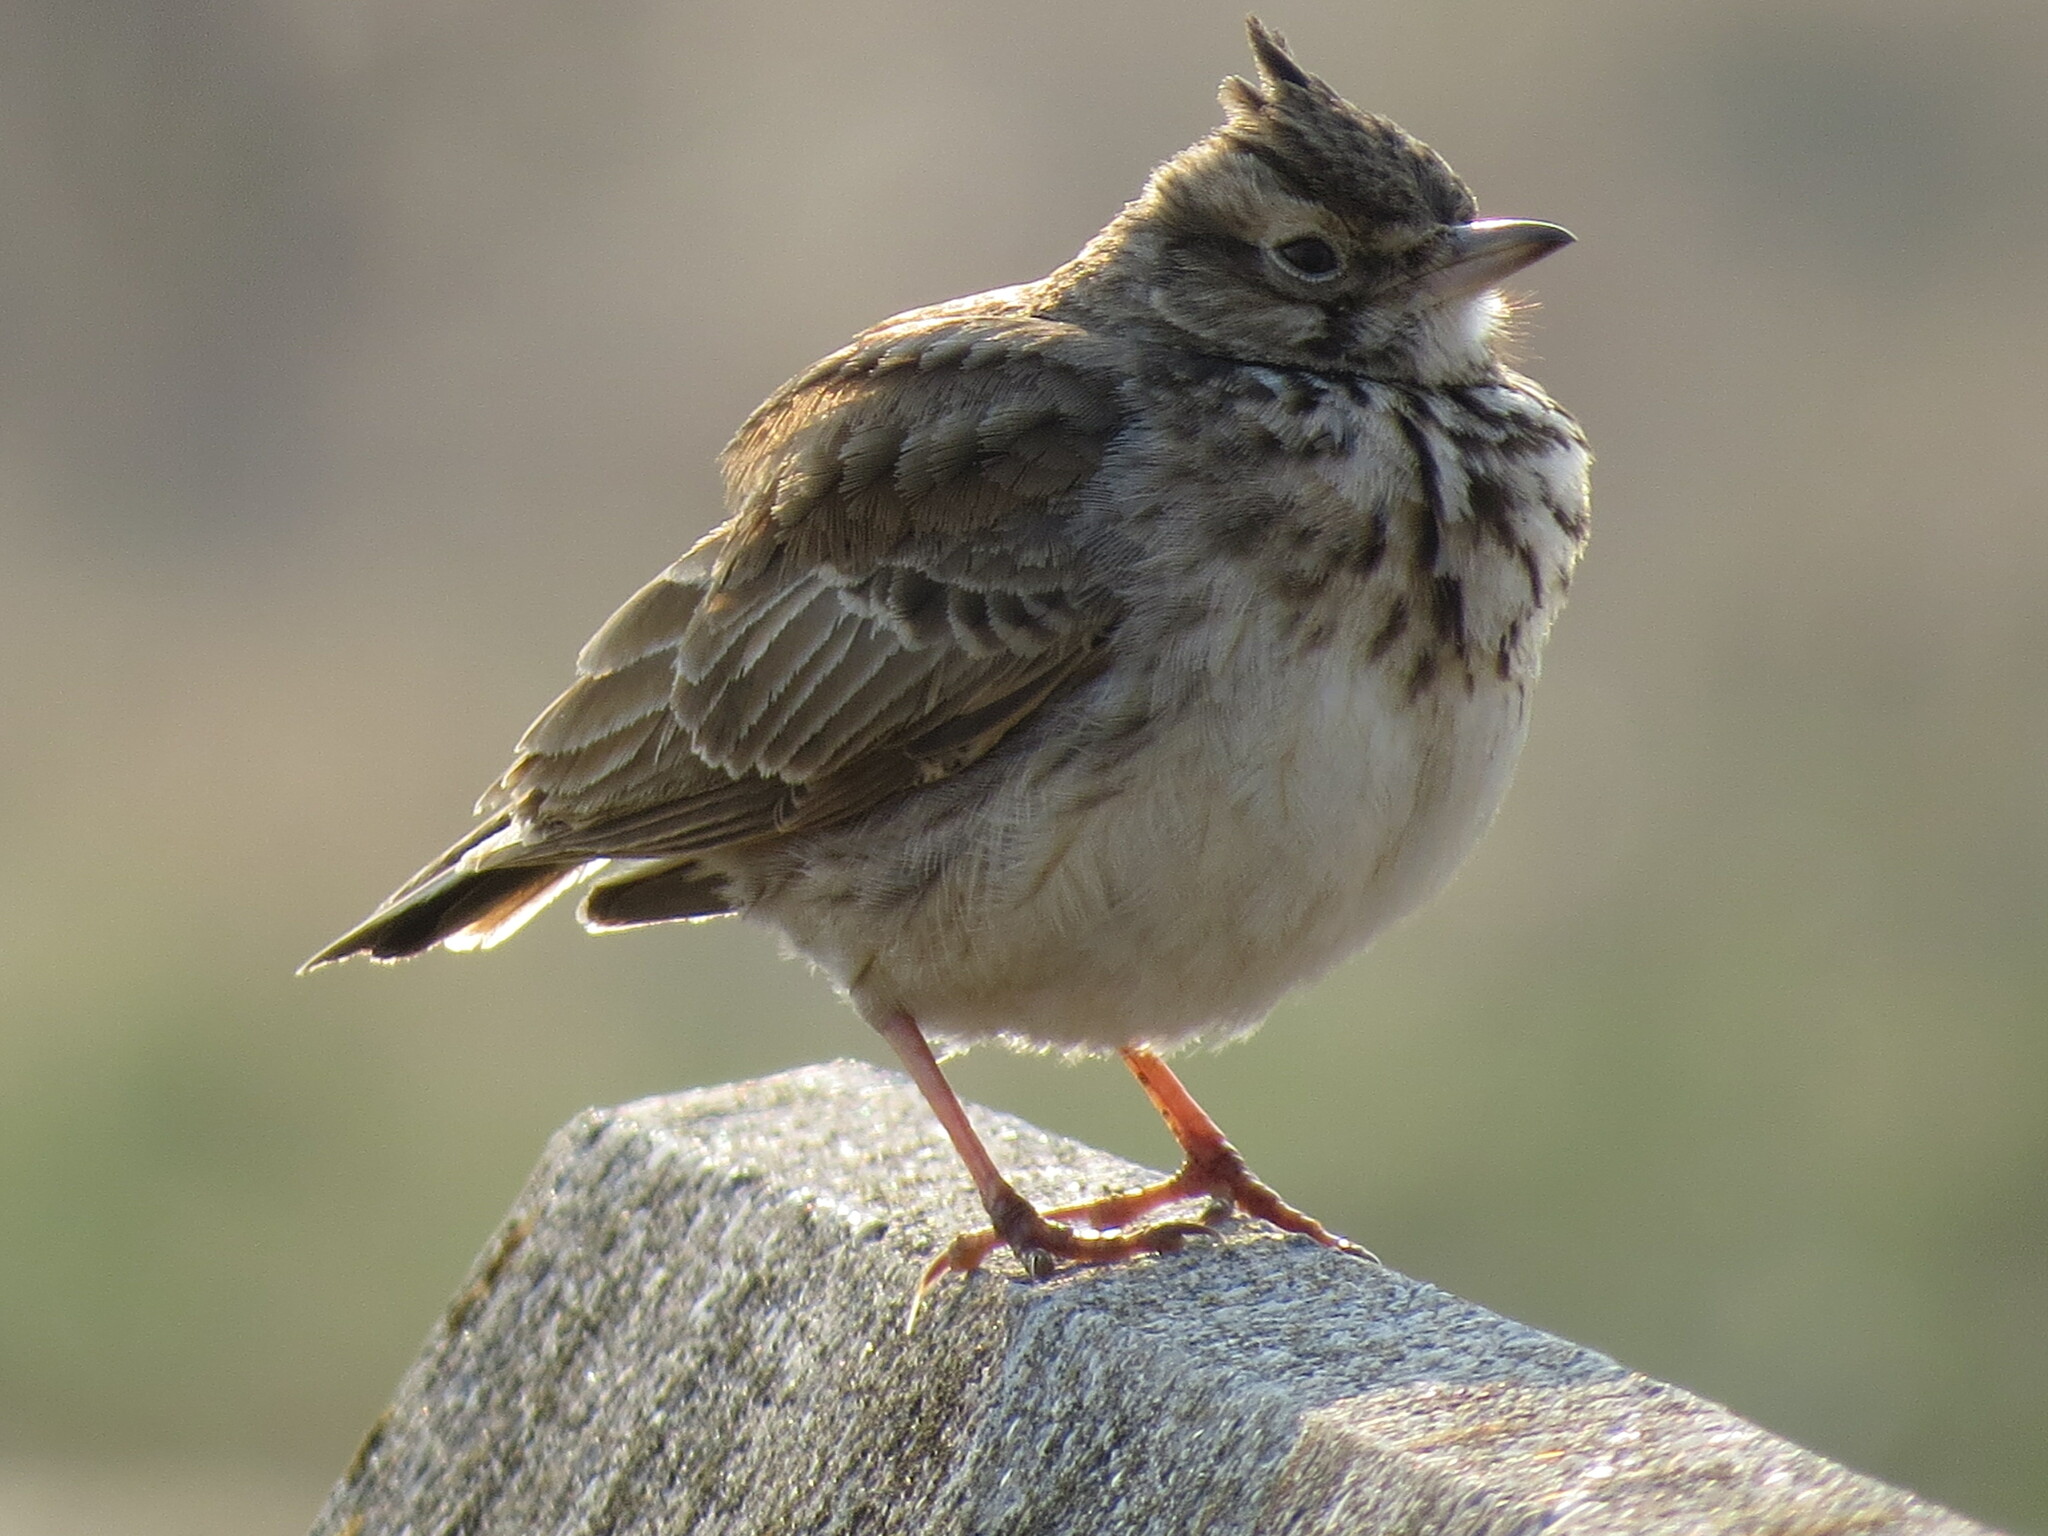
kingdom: Animalia
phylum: Chordata
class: Aves
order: Passeriformes
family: Alaudidae
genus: Galerida
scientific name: Galerida cristata
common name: Crested lark
